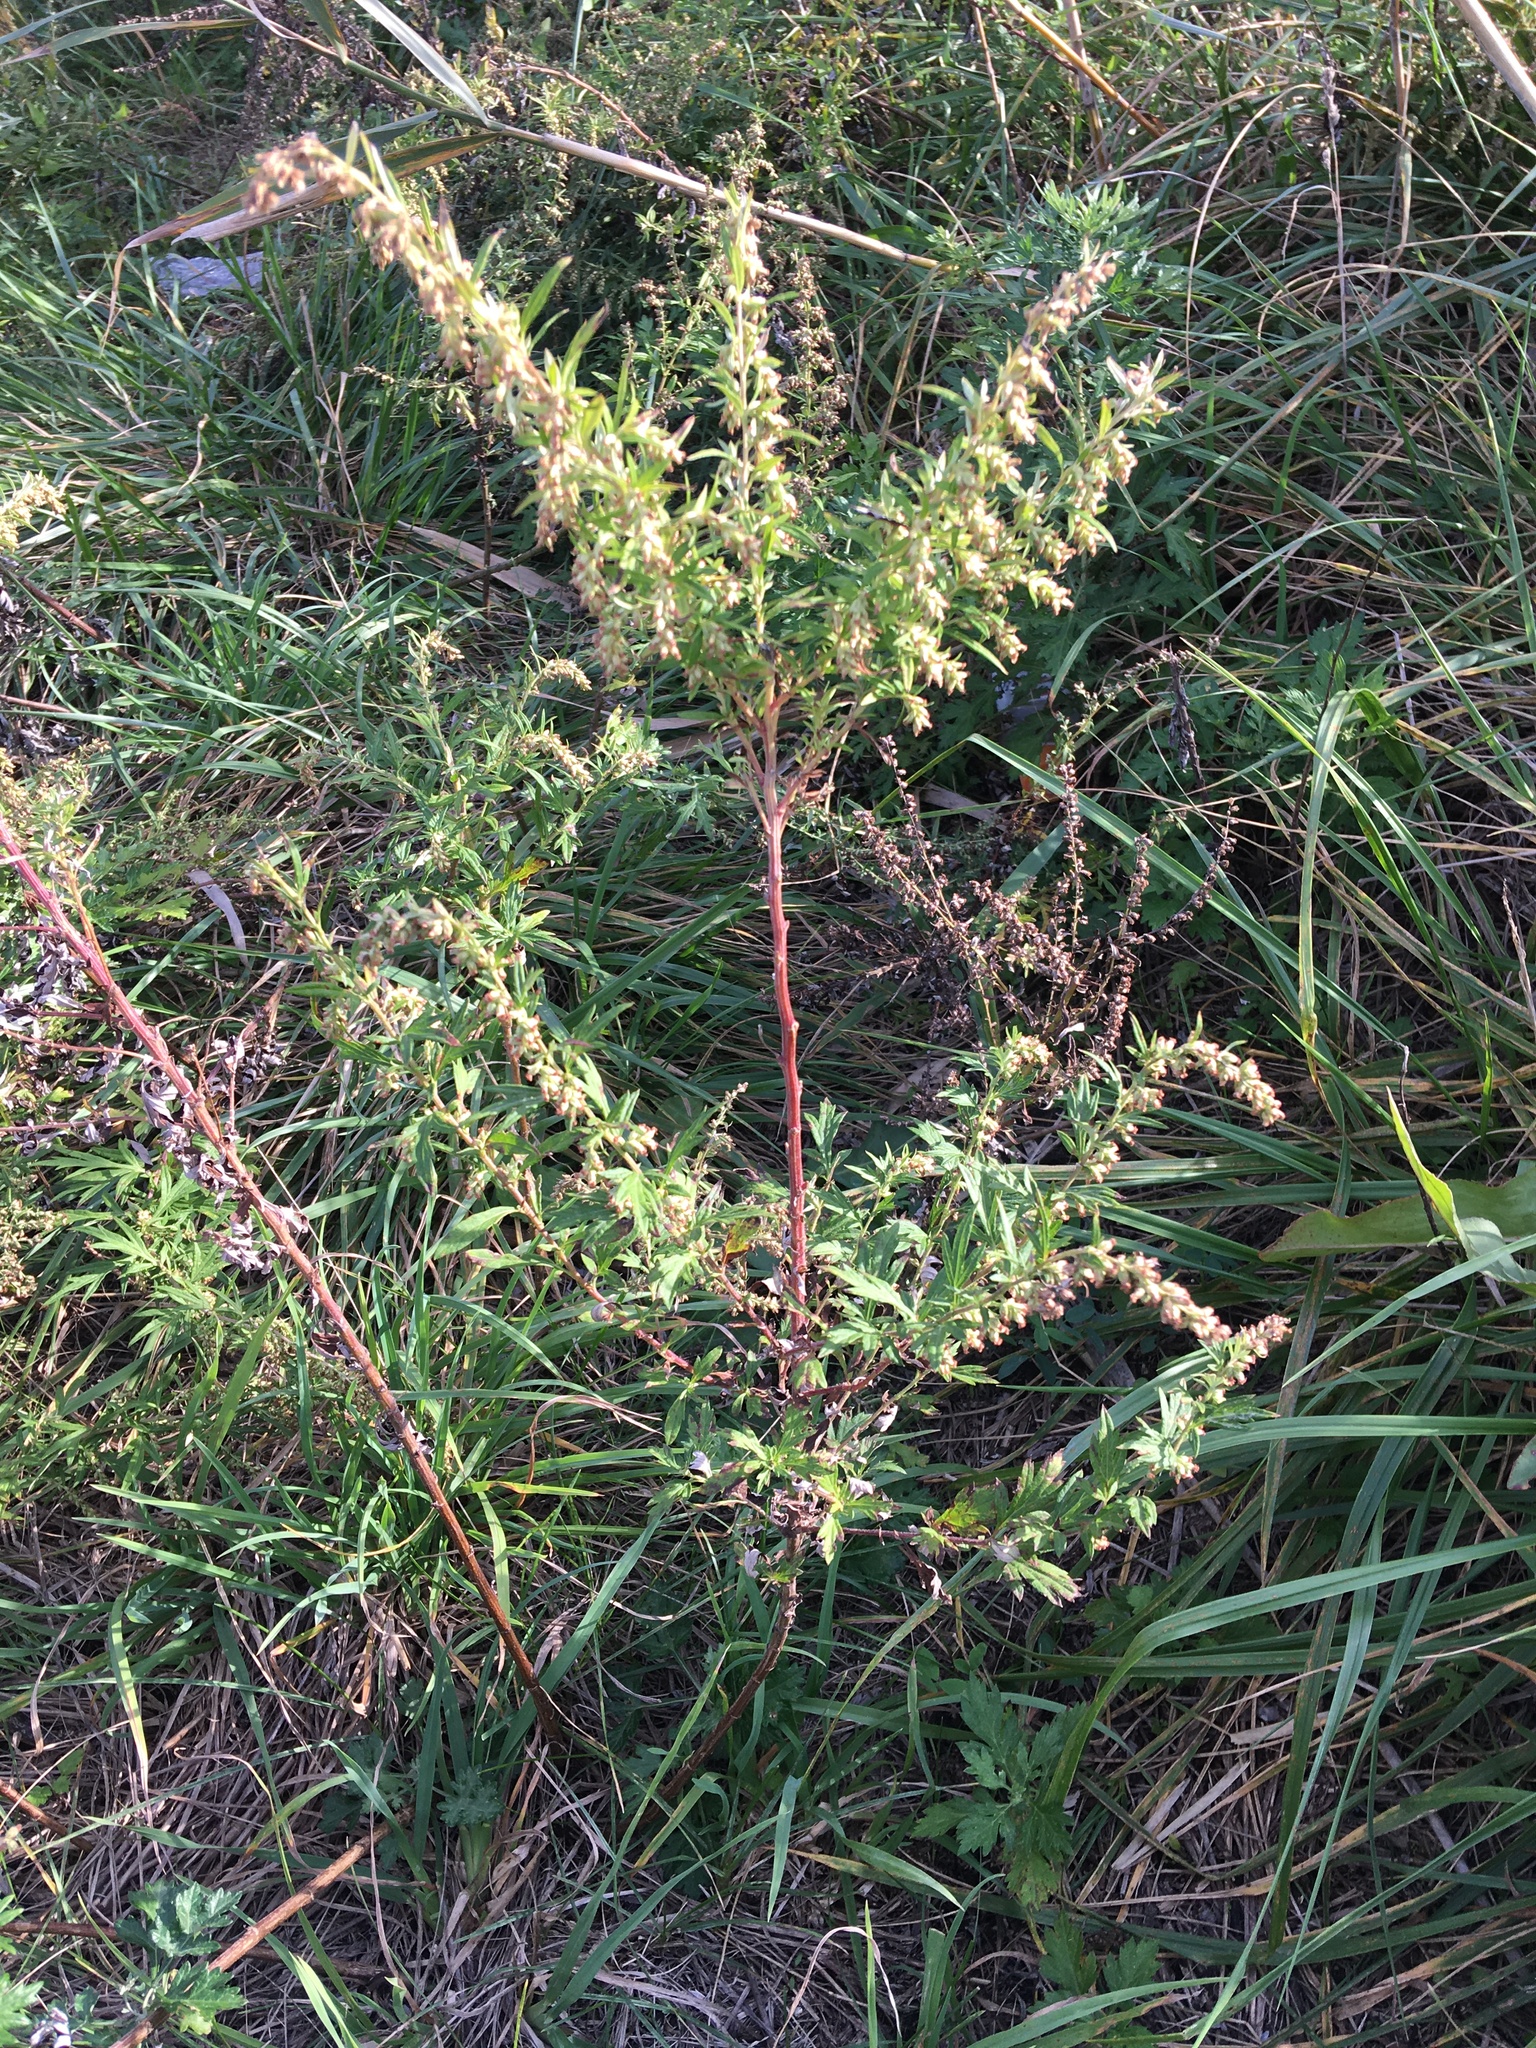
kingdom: Plantae
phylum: Tracheophyta
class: Magnoliopsida
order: Asterales
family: Asteraceae
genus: Artemisia
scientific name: Artemisia vulgaris
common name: Mugwort
